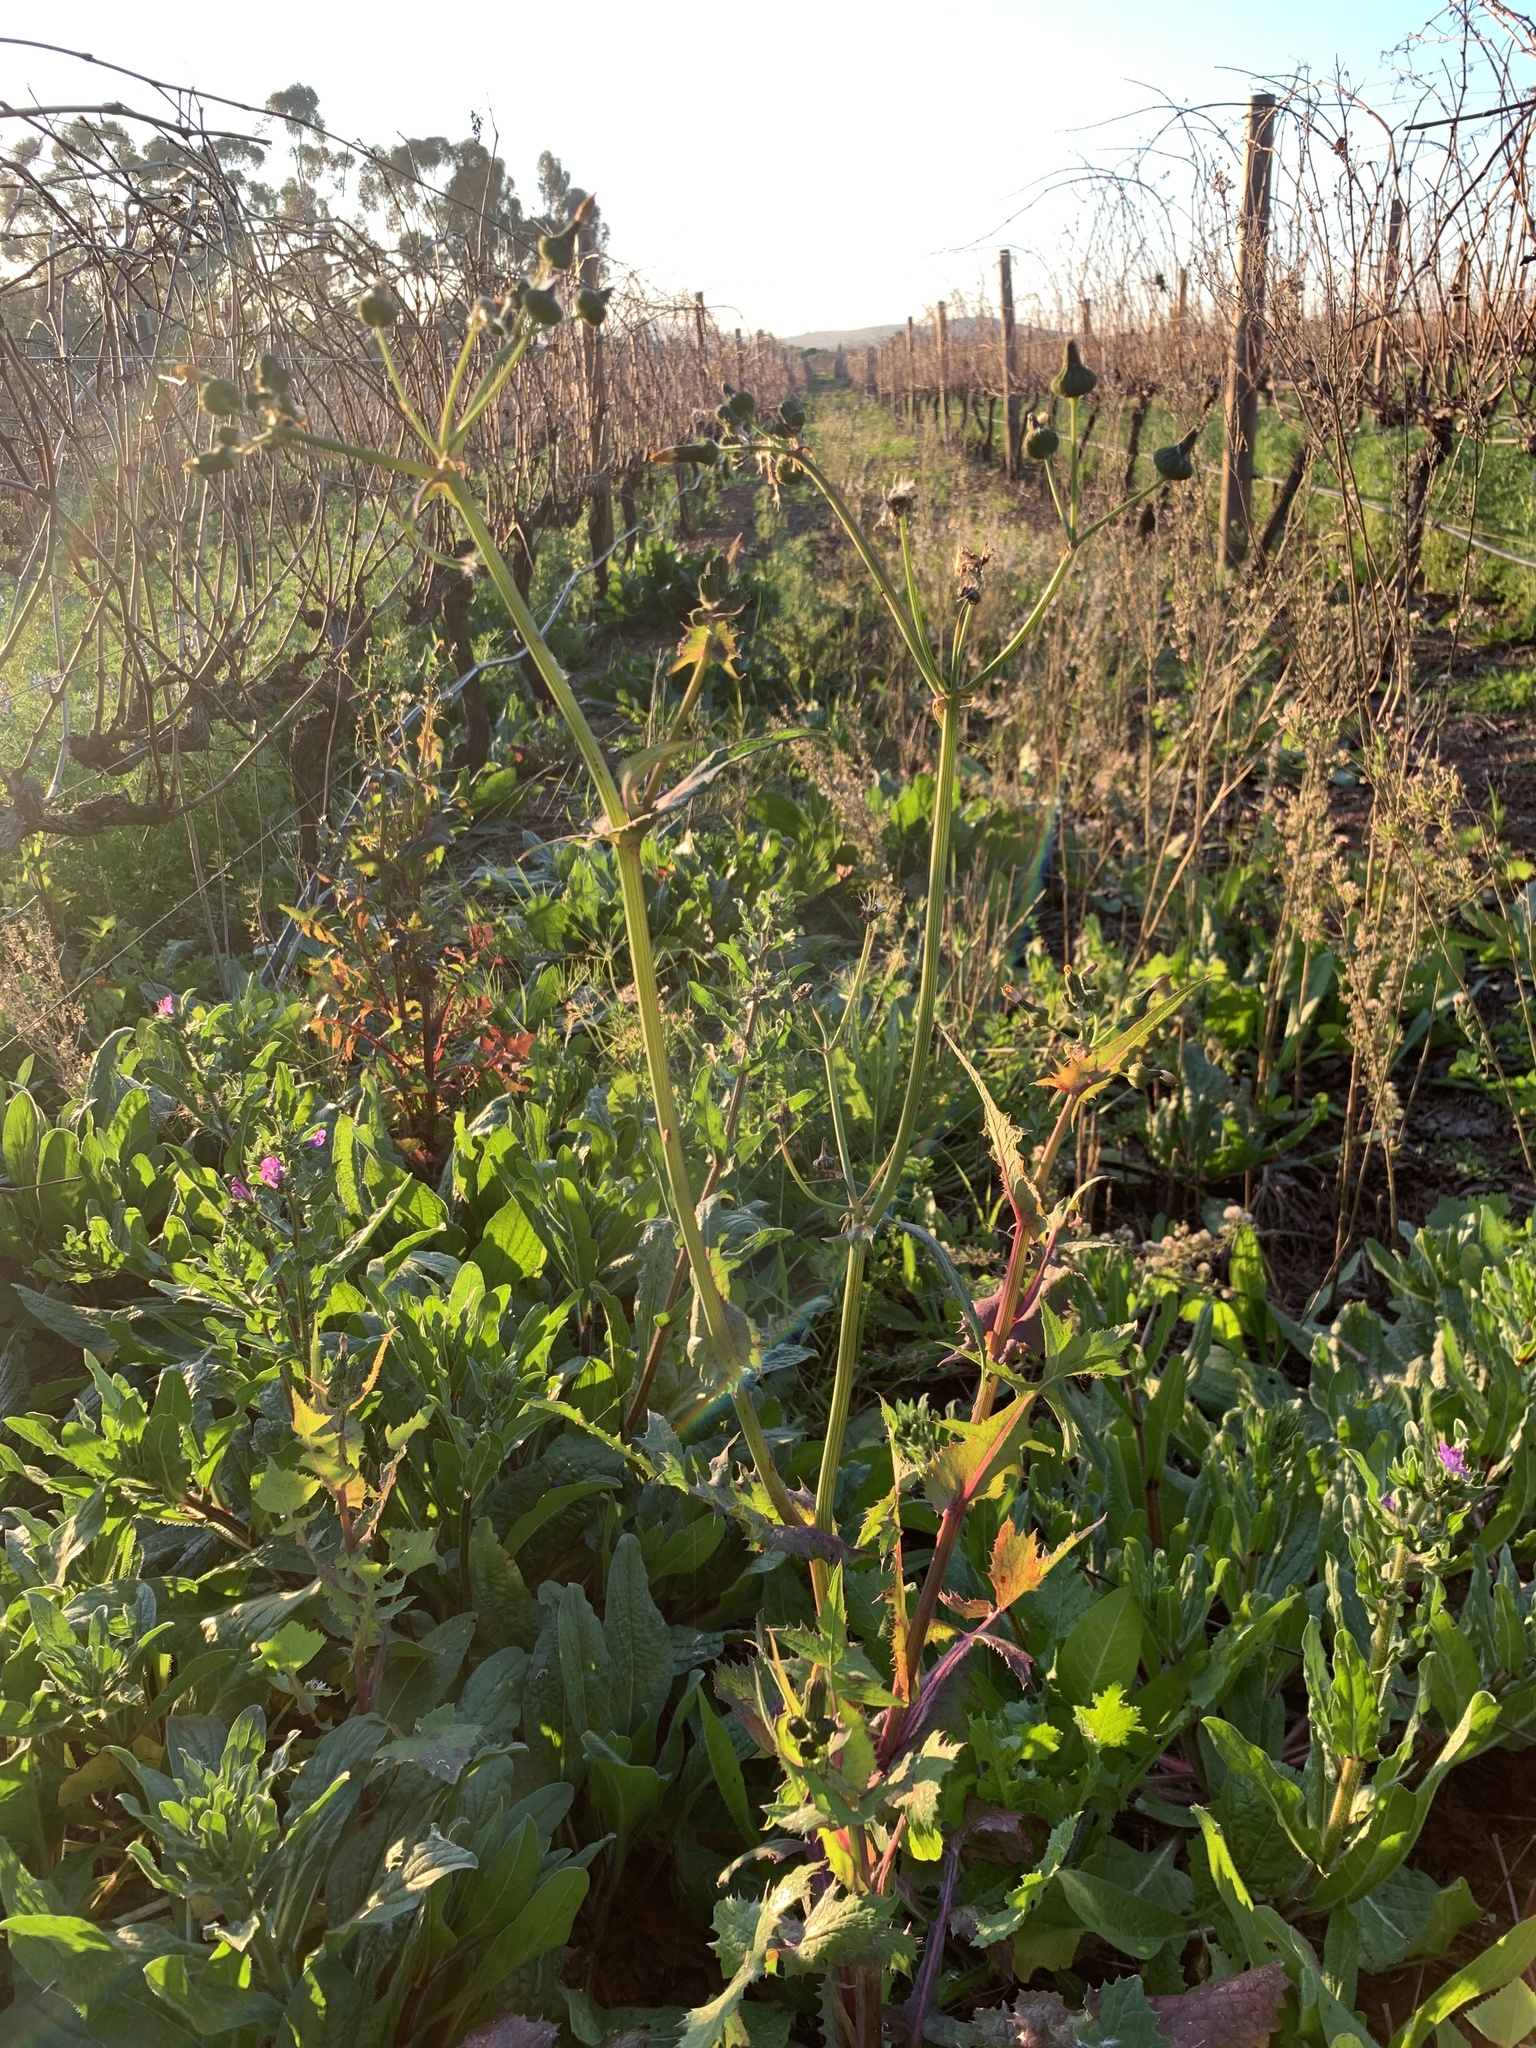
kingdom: Plantae
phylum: Tracheophyta
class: Magnoliopsida
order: Asterales
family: Asteraceae
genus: Sonchus
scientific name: Sonchus oleraceus
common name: Common sowthistle
